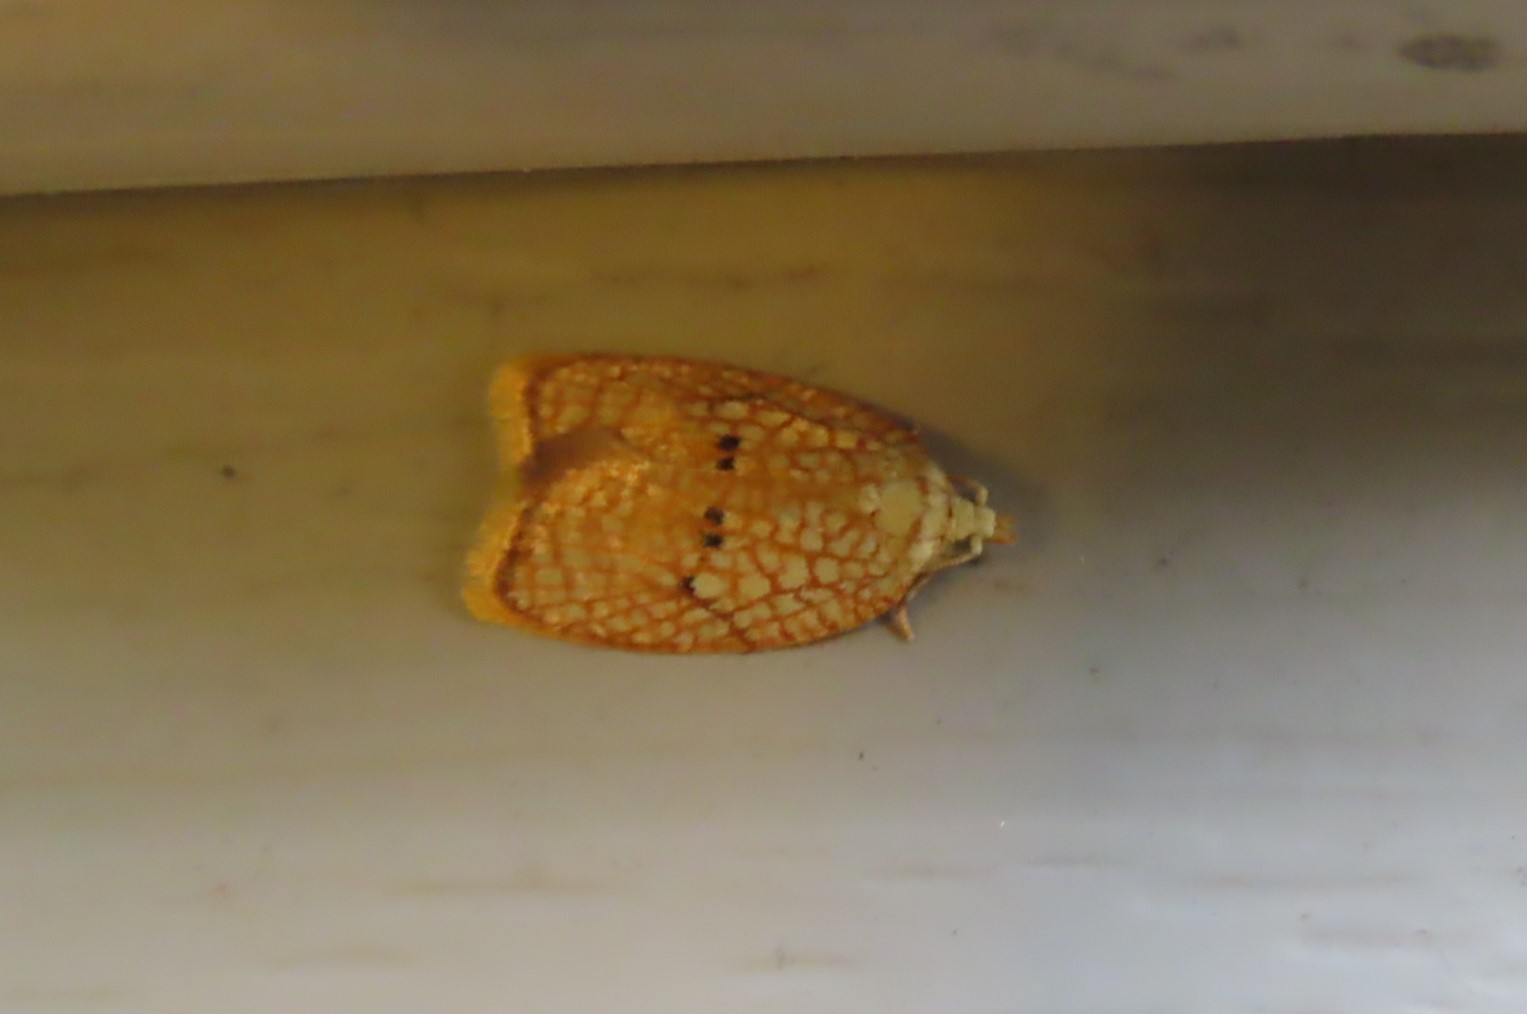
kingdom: Animalia
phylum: Arthropoda
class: Insecta
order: Lepidoptera
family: Tortricidae
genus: Acleris
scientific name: Acleris forsskaleana
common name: Maple button
